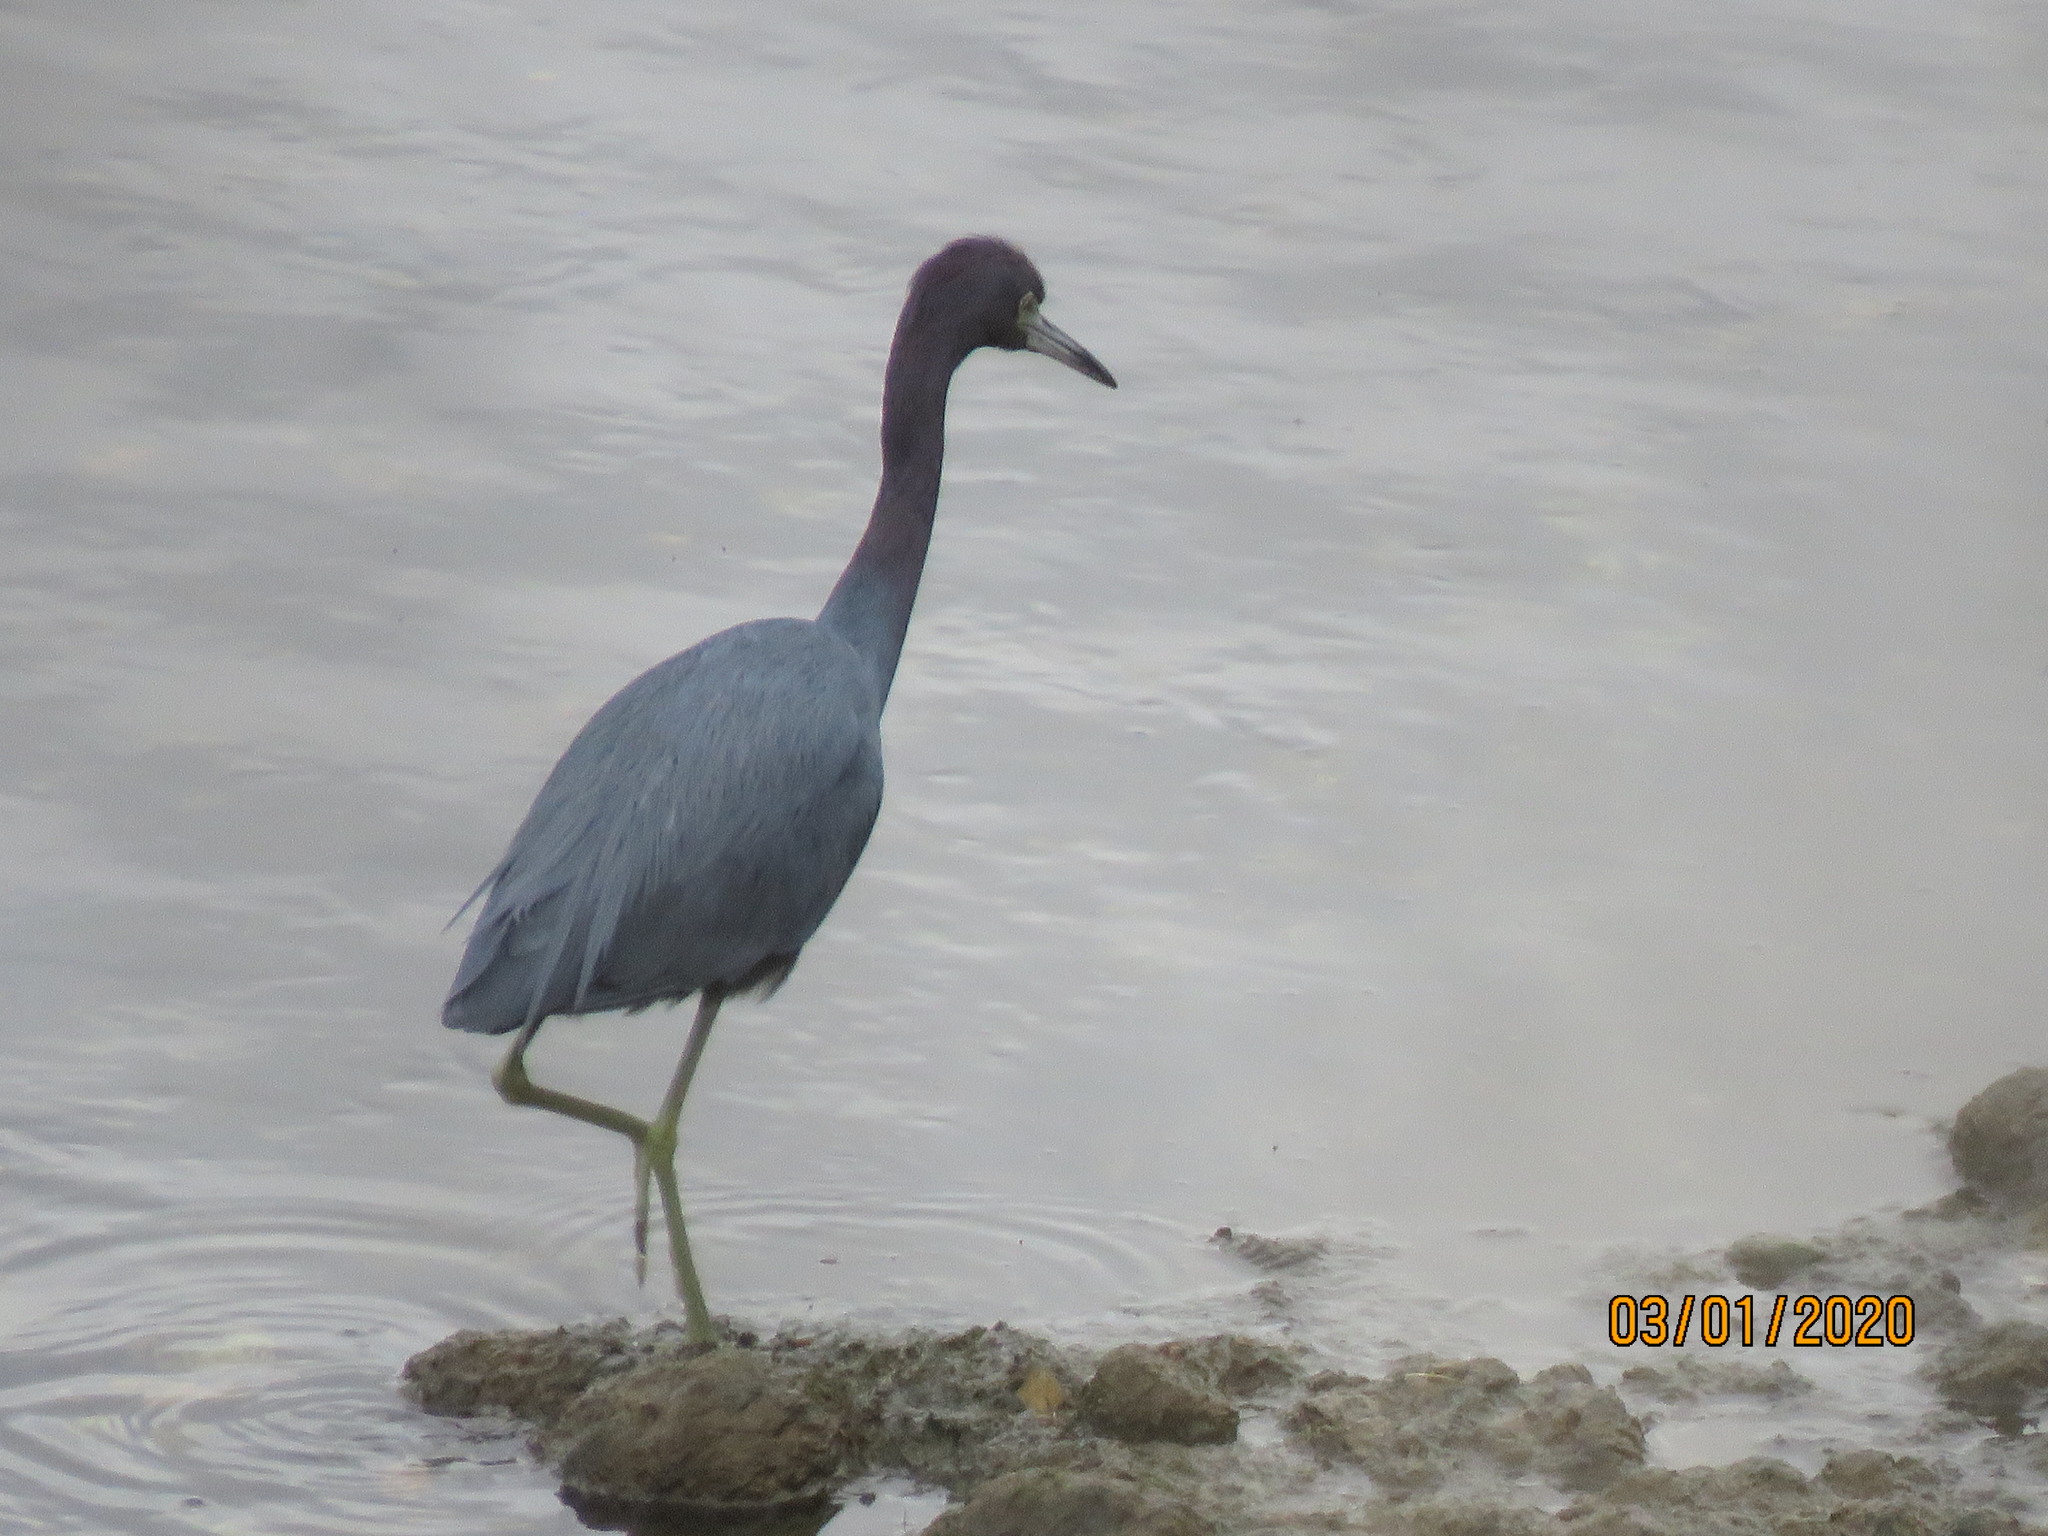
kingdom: Animalia
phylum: Chordata
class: Aves
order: Pelecaniformes
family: Ardeidae
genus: Egretta
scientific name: Egretta caerulea
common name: Little blue heron
